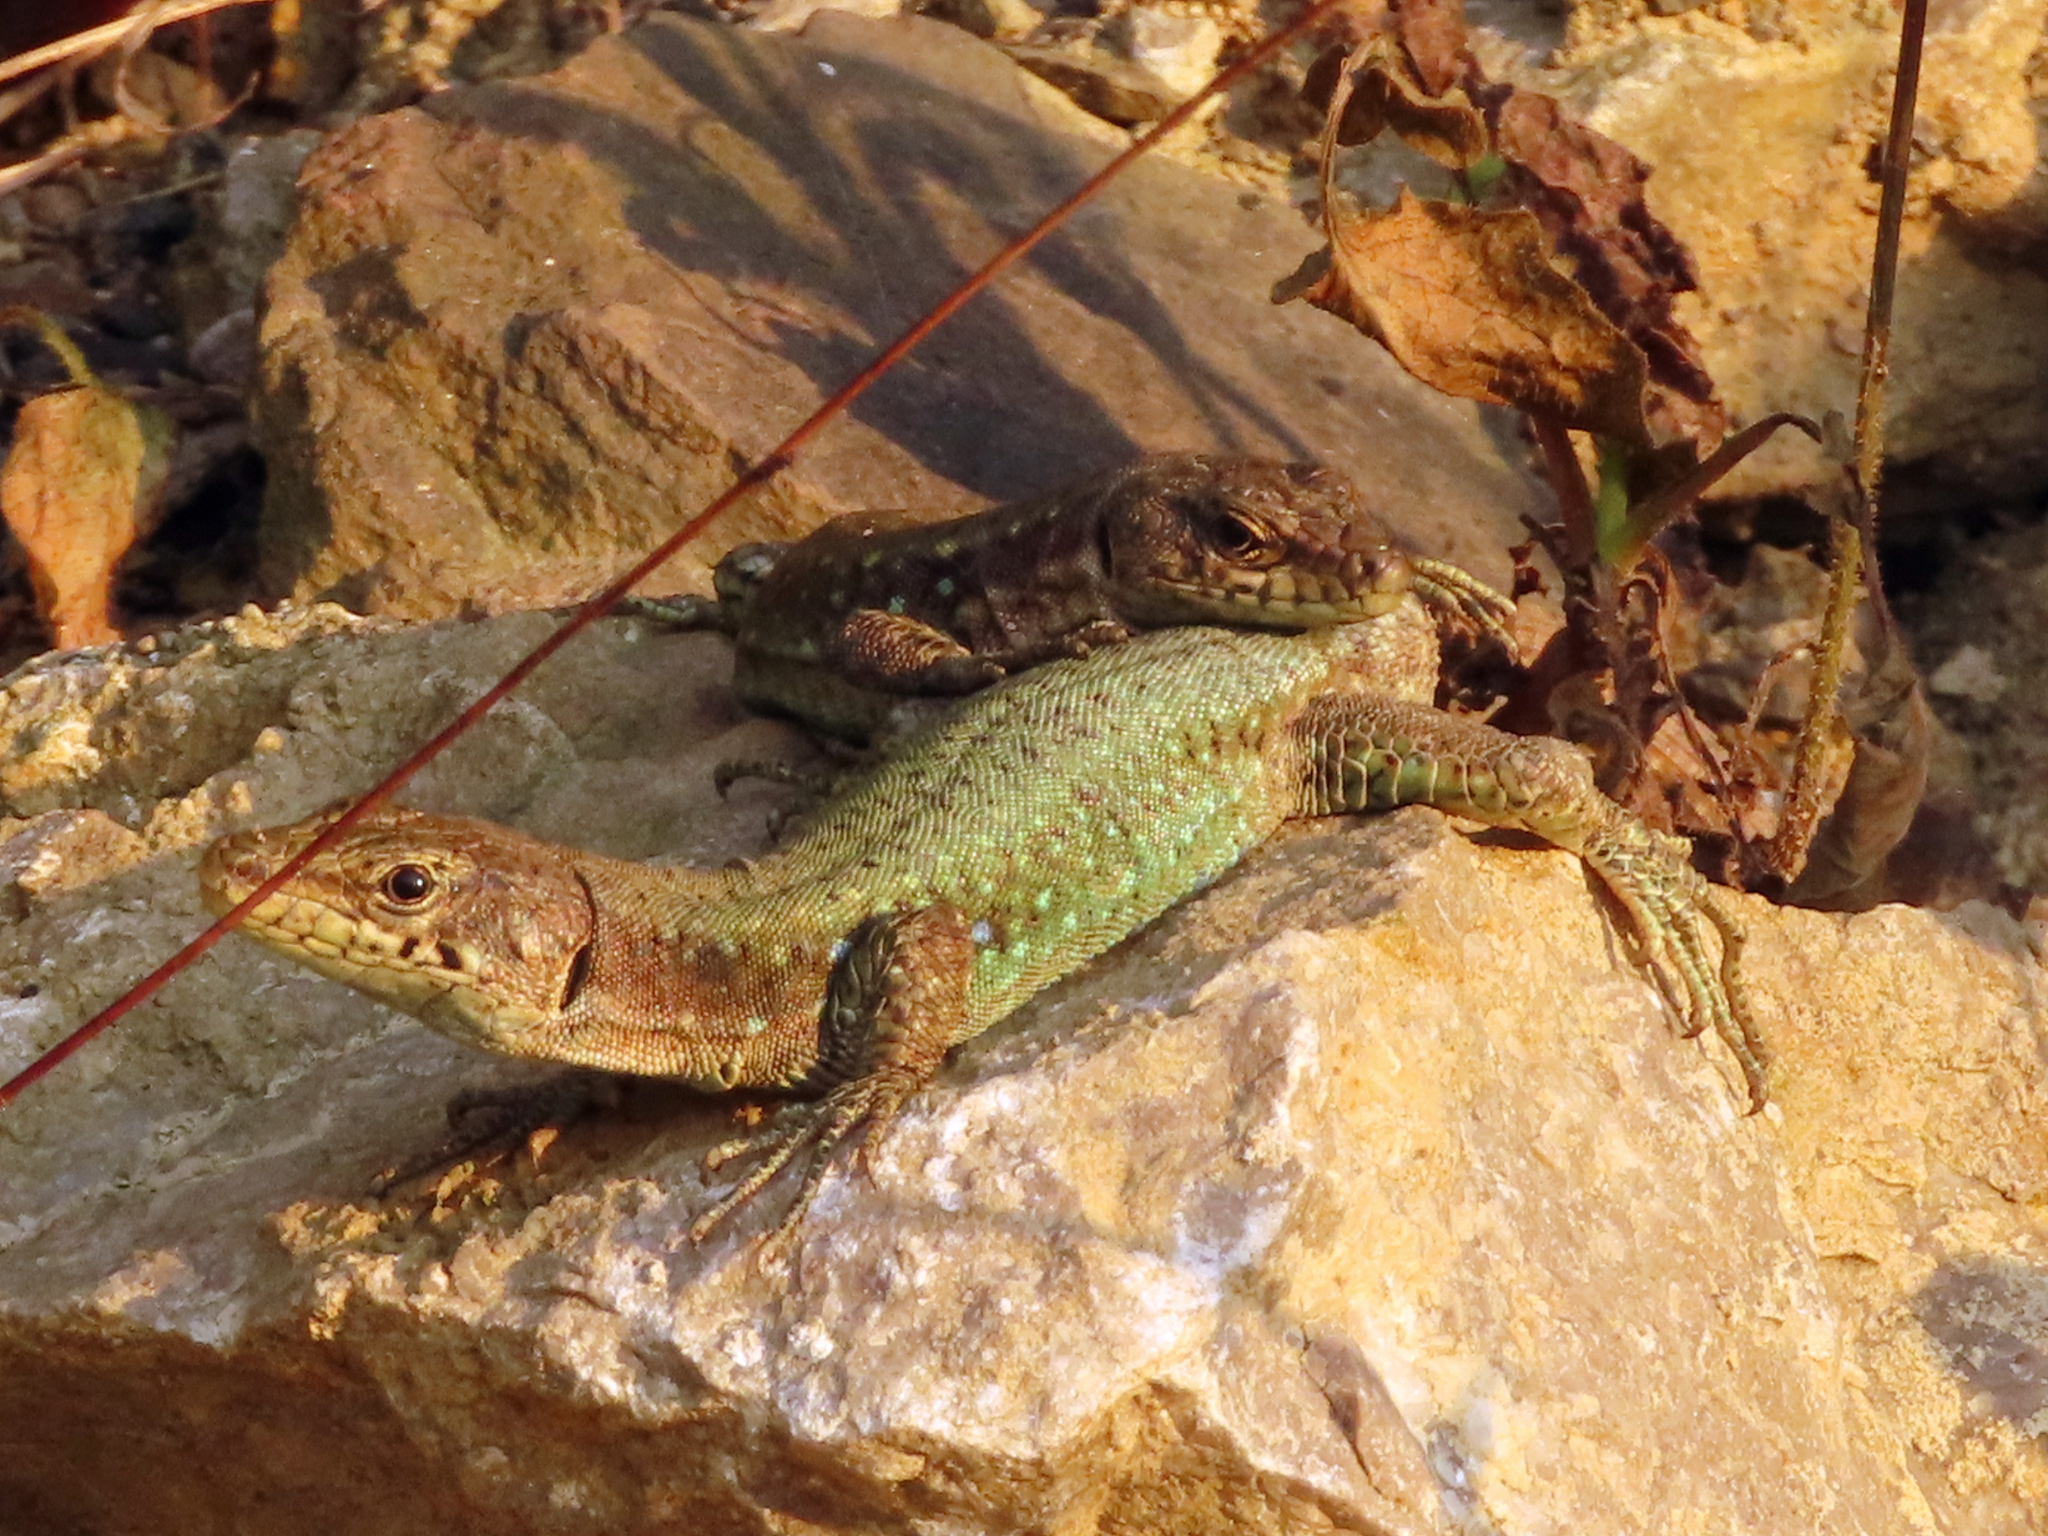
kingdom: Animalia
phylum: Chordata
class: Squamata
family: Lacertidae
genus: Darevskia
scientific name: Darevskia bithynica
